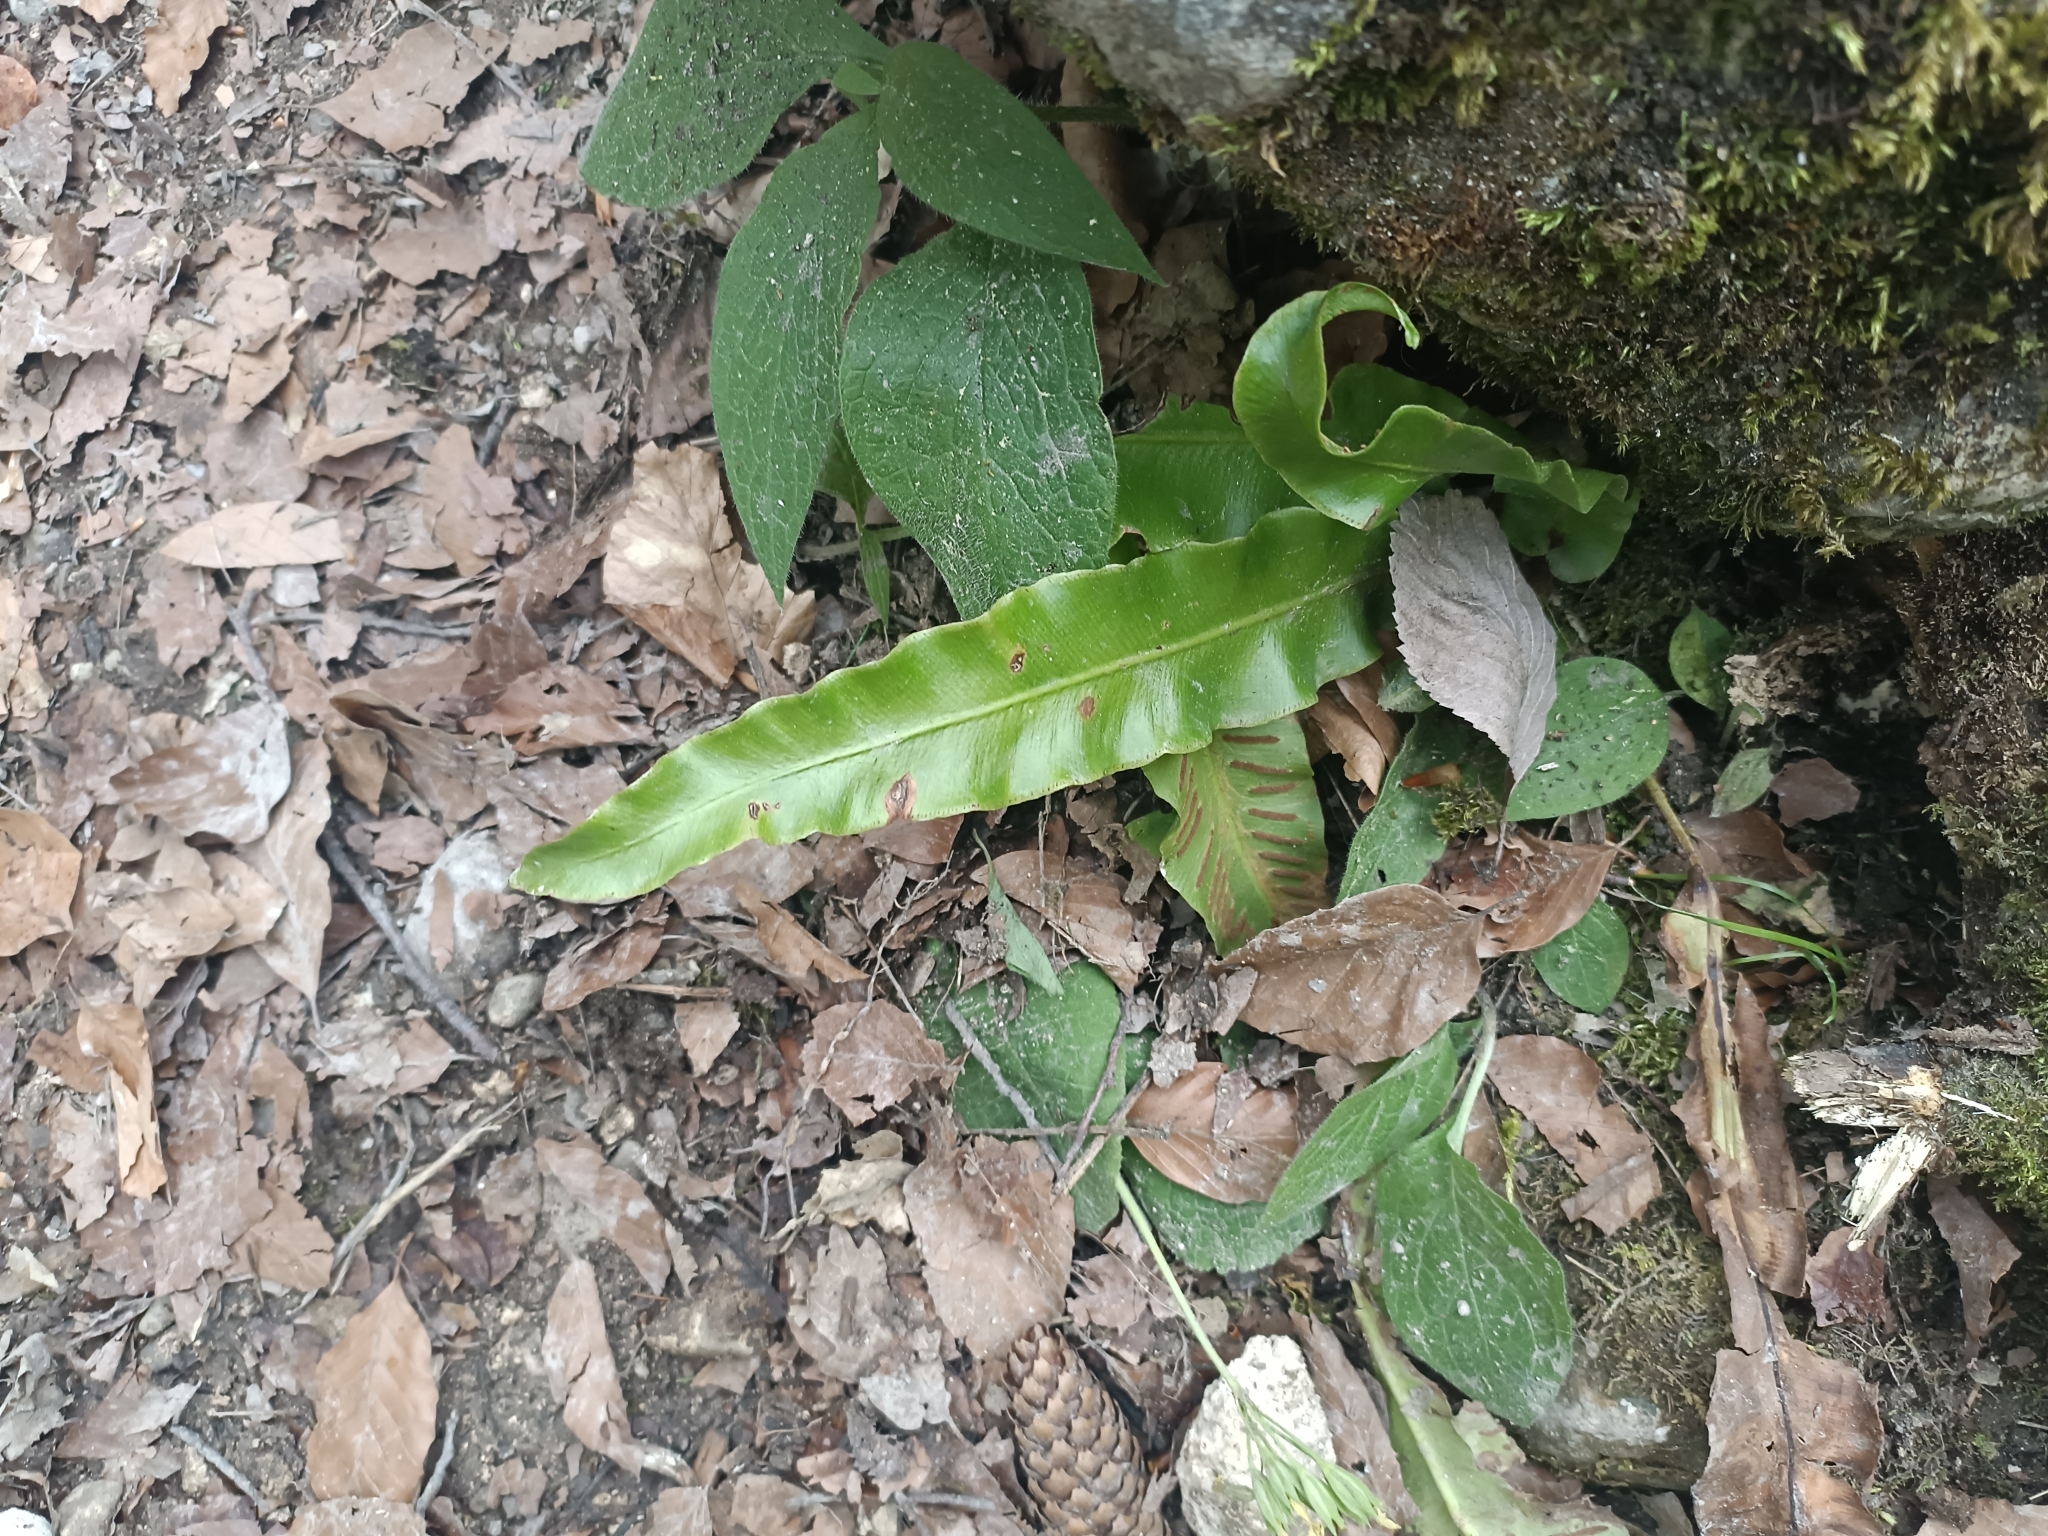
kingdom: Plantae
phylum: Tracheophyta
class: Polypodiopsida
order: Polypodiales
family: Aspleniaceae
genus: Asplenium
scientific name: Asplenium scolopendrium
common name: Hart's-tongue fern
